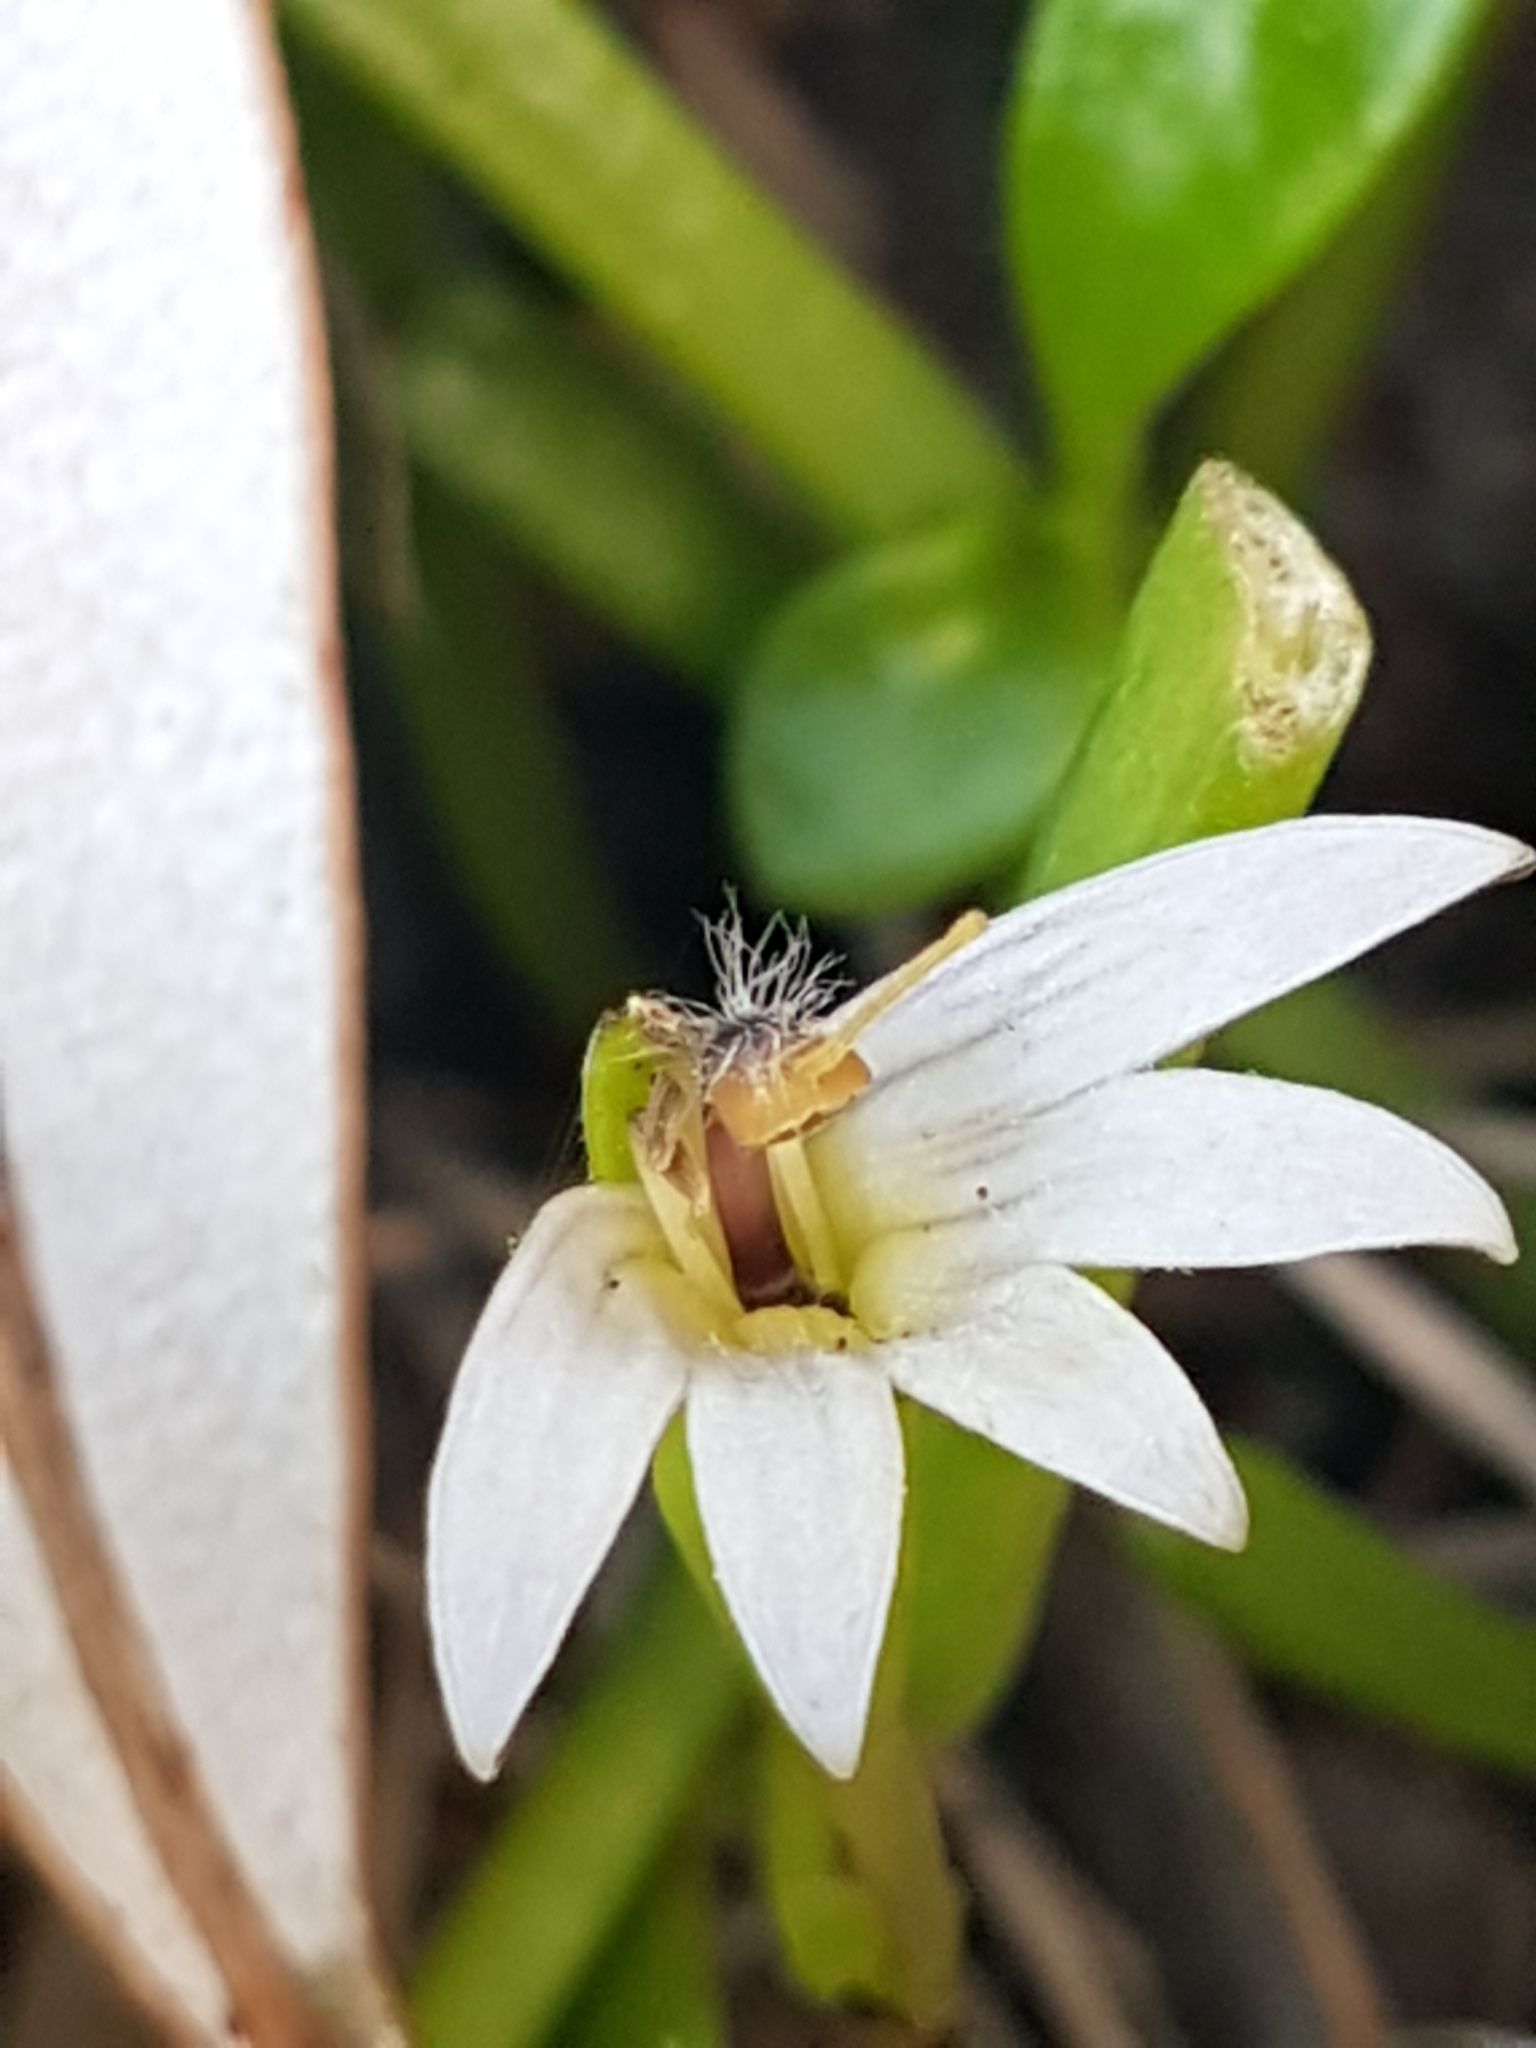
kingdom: Plantae
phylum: Tracheophyta
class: Magnoliopsida
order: Asterales
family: Goodeniaceae
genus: Goodenia
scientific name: Goodenia radicans
